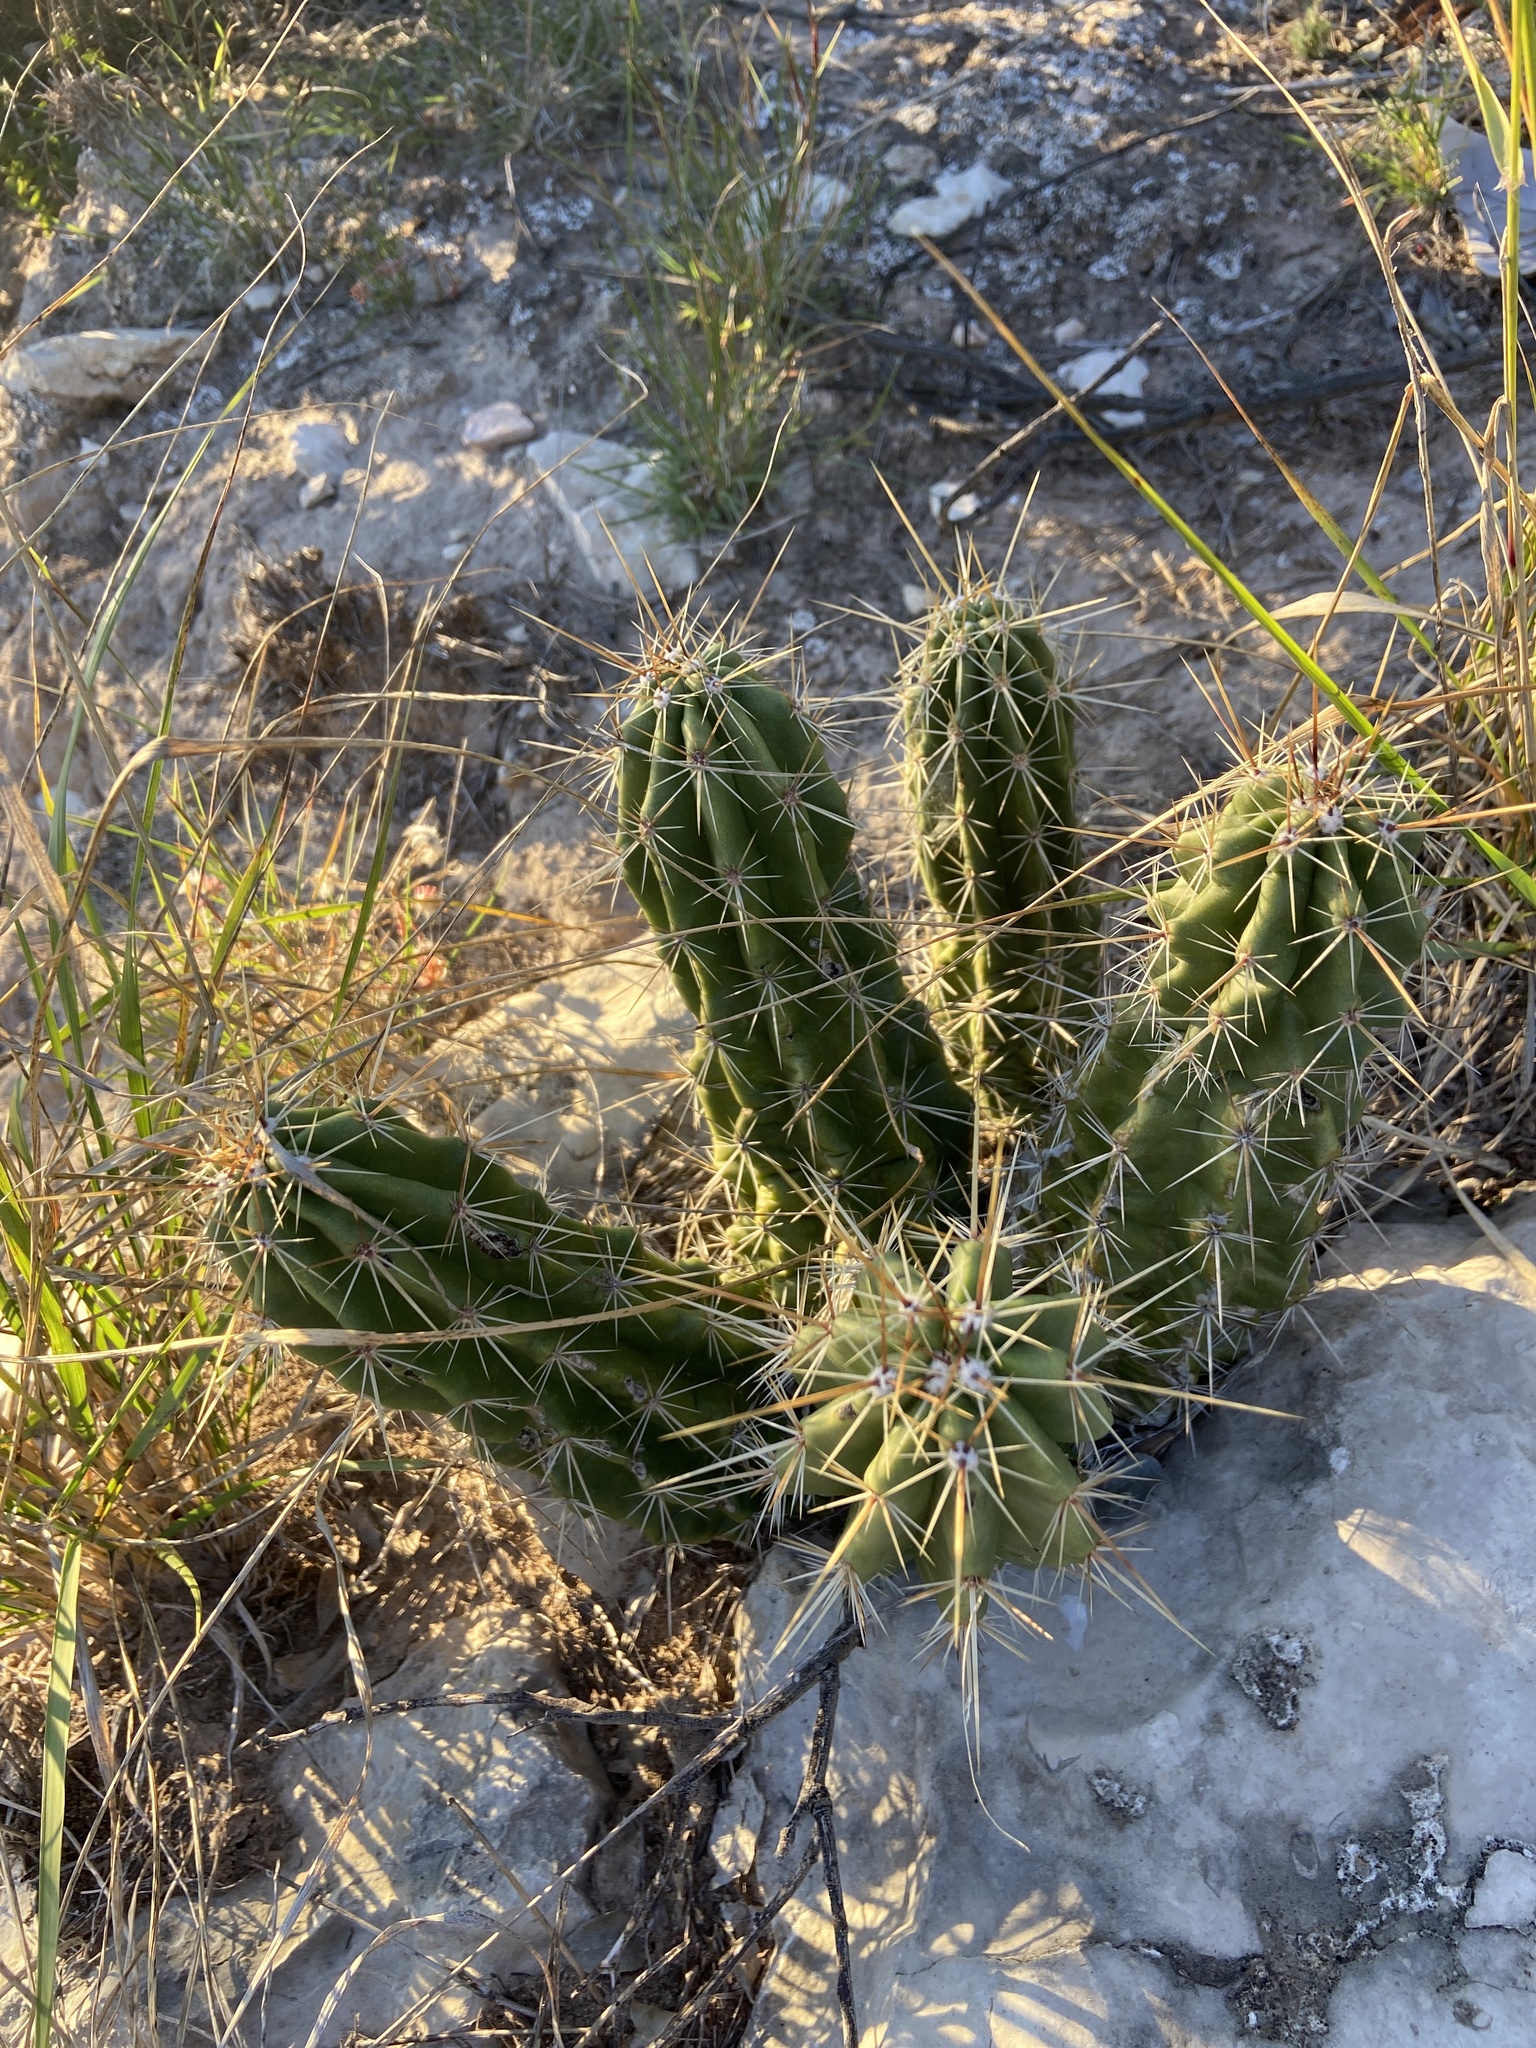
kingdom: Plantae
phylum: Tracheophyta
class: Magnoliopsida
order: Caryophyllales
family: Cactaceae
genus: Echinocereus
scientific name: Echinocereus enneacanthus
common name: Pitaya
